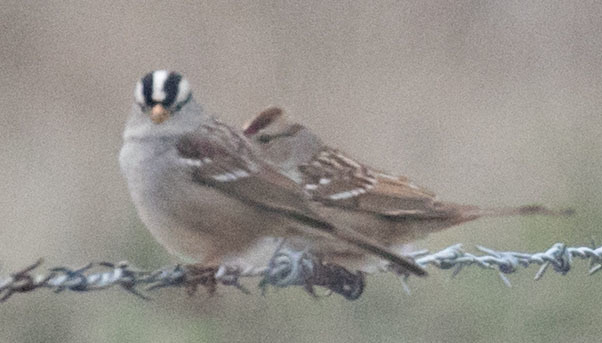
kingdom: Animalia
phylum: Chordata
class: Aves
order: Passeriformes
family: Passerellidae
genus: Zonotrichia
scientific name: Zonotrichia leucophrys
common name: White-crowned sparrow
